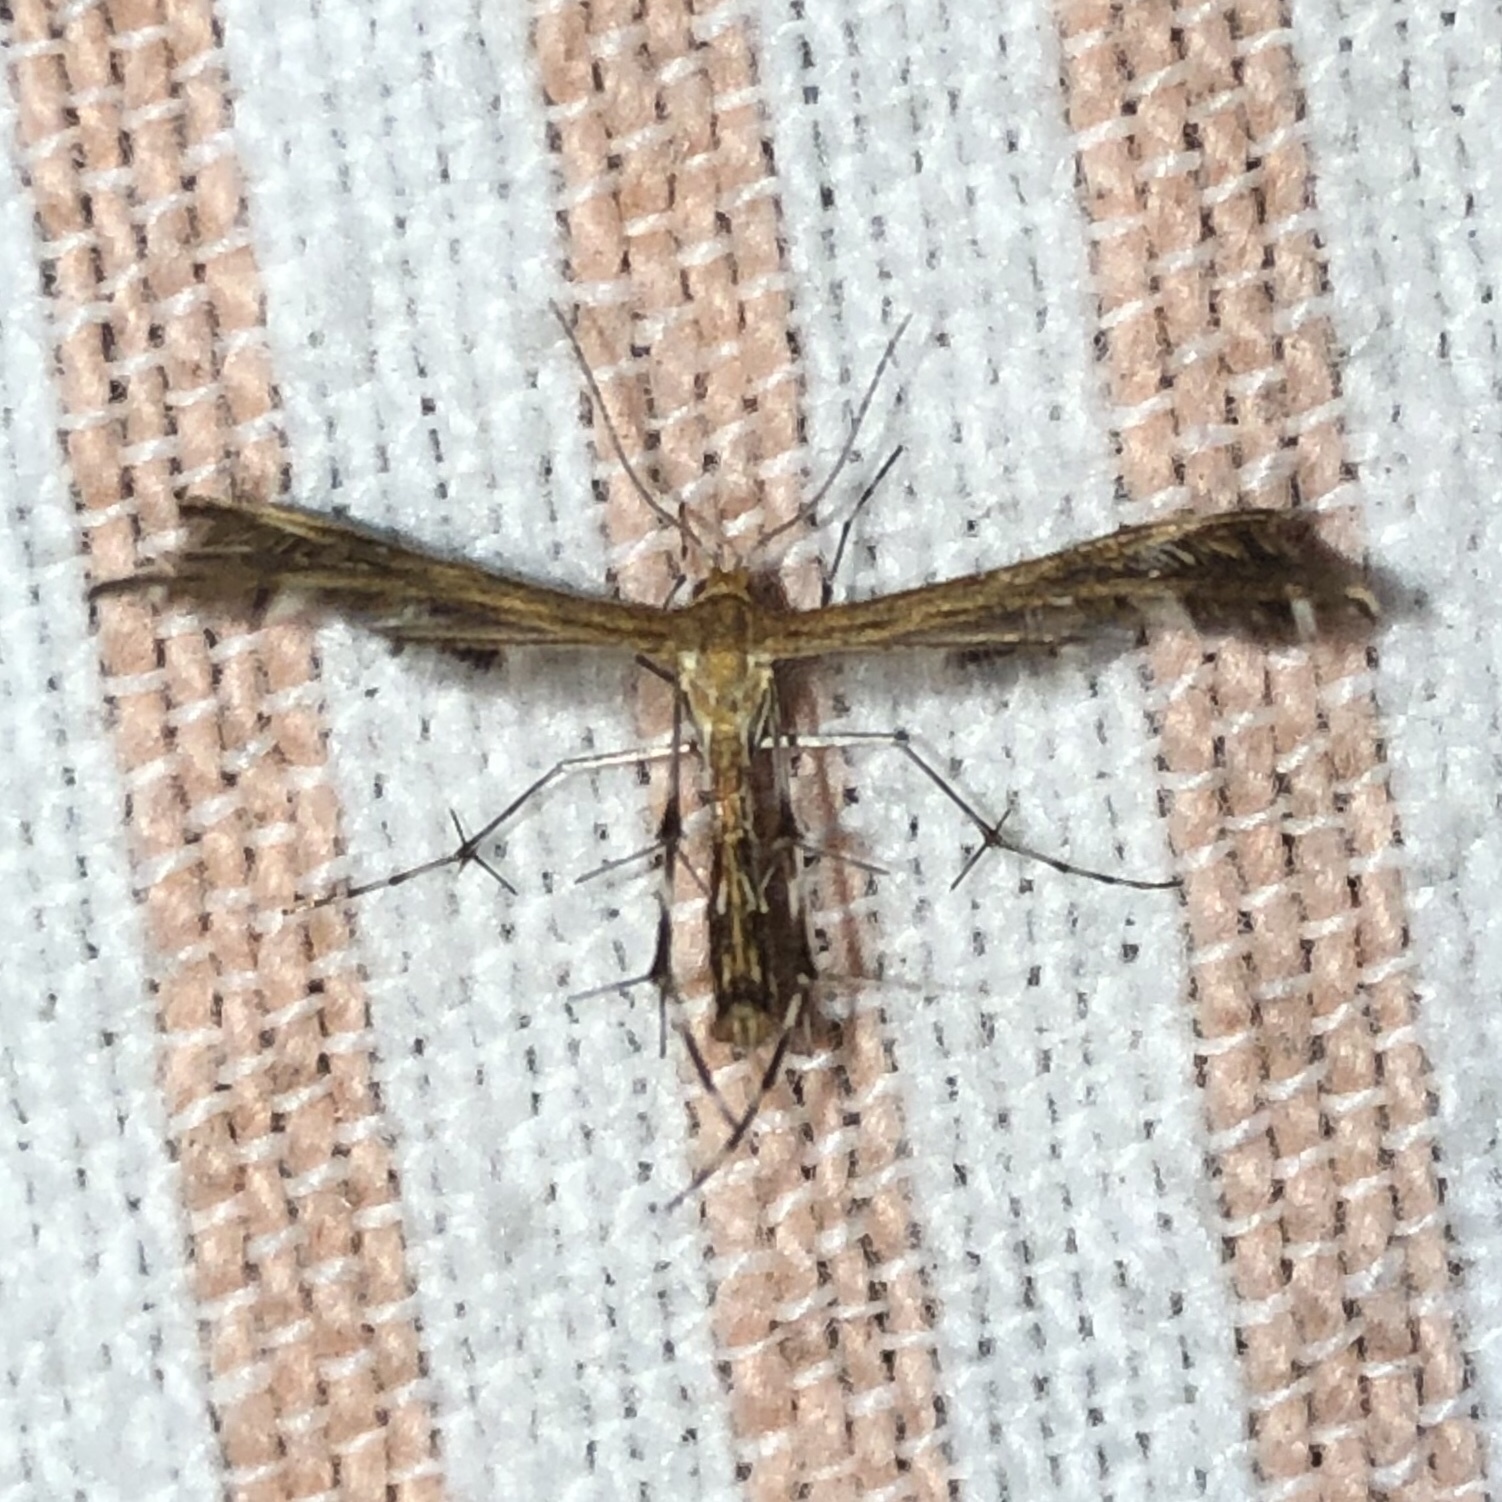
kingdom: Animalia
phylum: Arthropoda
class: Insecta
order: Lepidoptera
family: Pterophoridae
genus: Dejongia
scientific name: Dejongia lobidactylus
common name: Lobed plume moth
